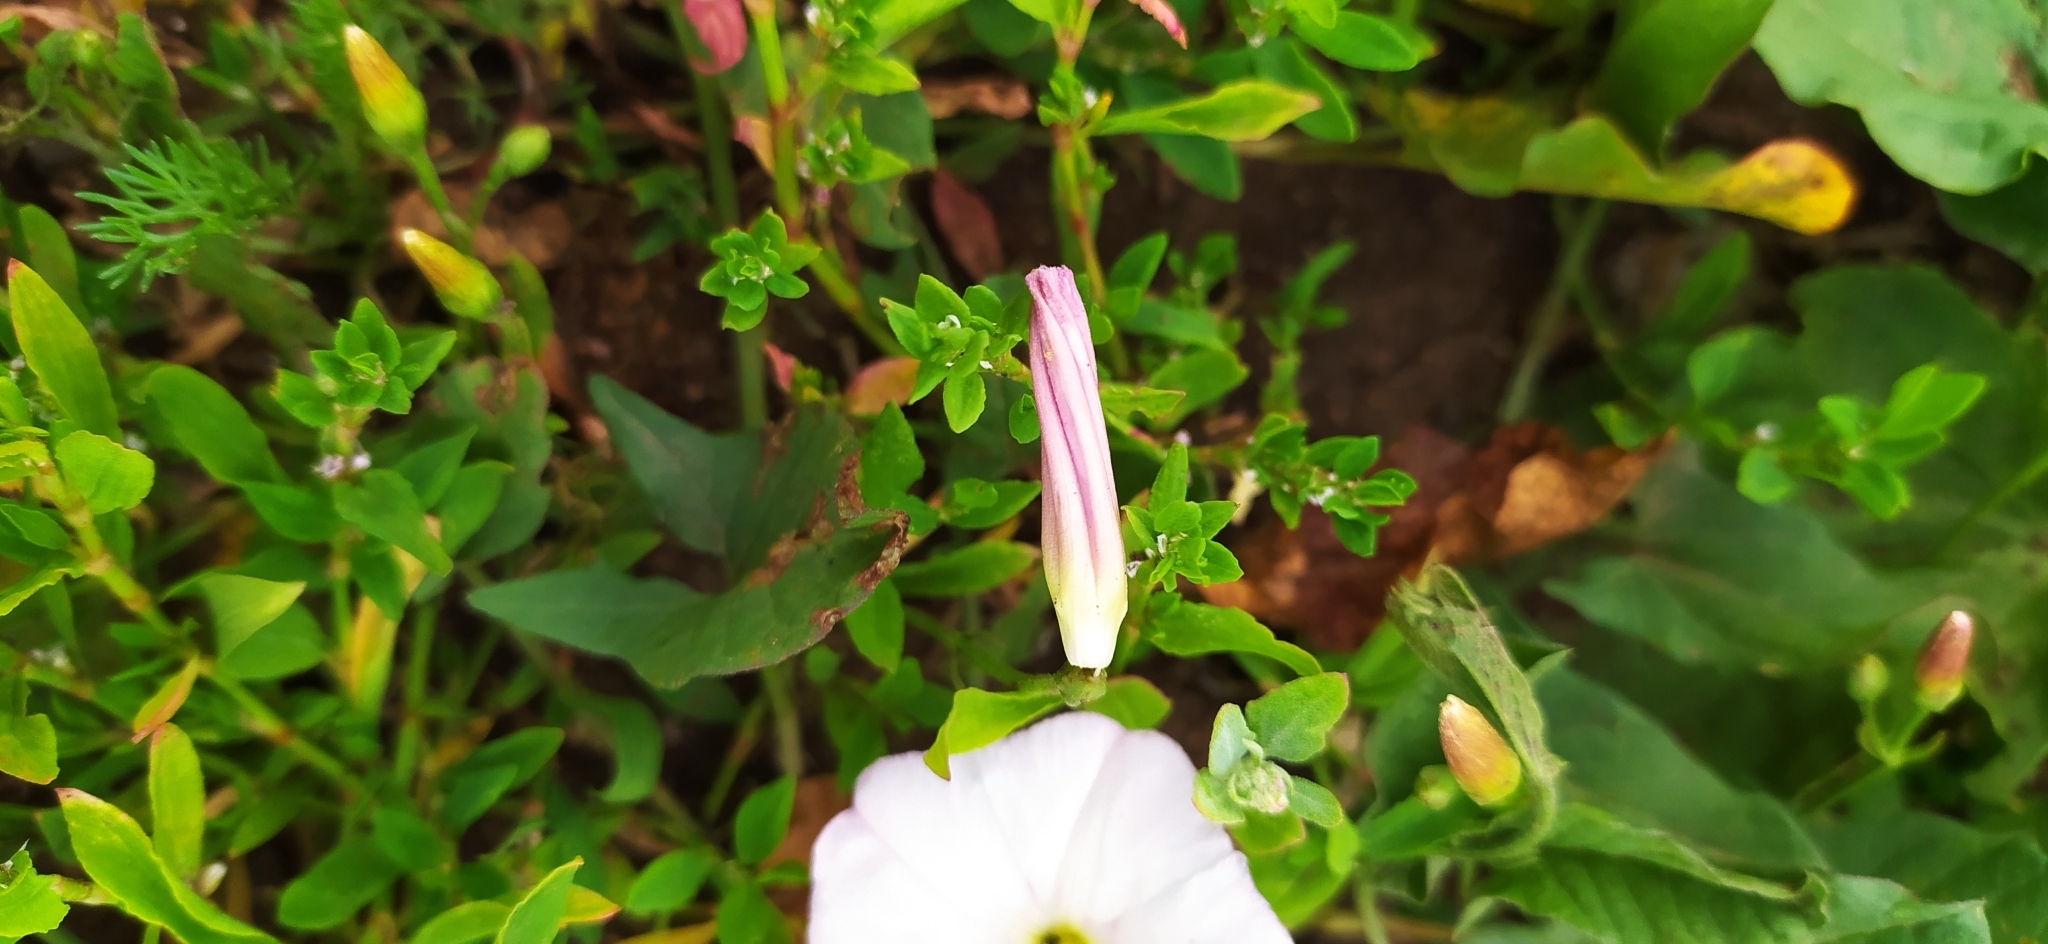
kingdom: Plantae
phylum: Tracheophyta
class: Magnoliopsida
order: Solanales
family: Convolvulaceae
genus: Convolvulus
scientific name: Convolvulus arvensis
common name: Field bindweed
